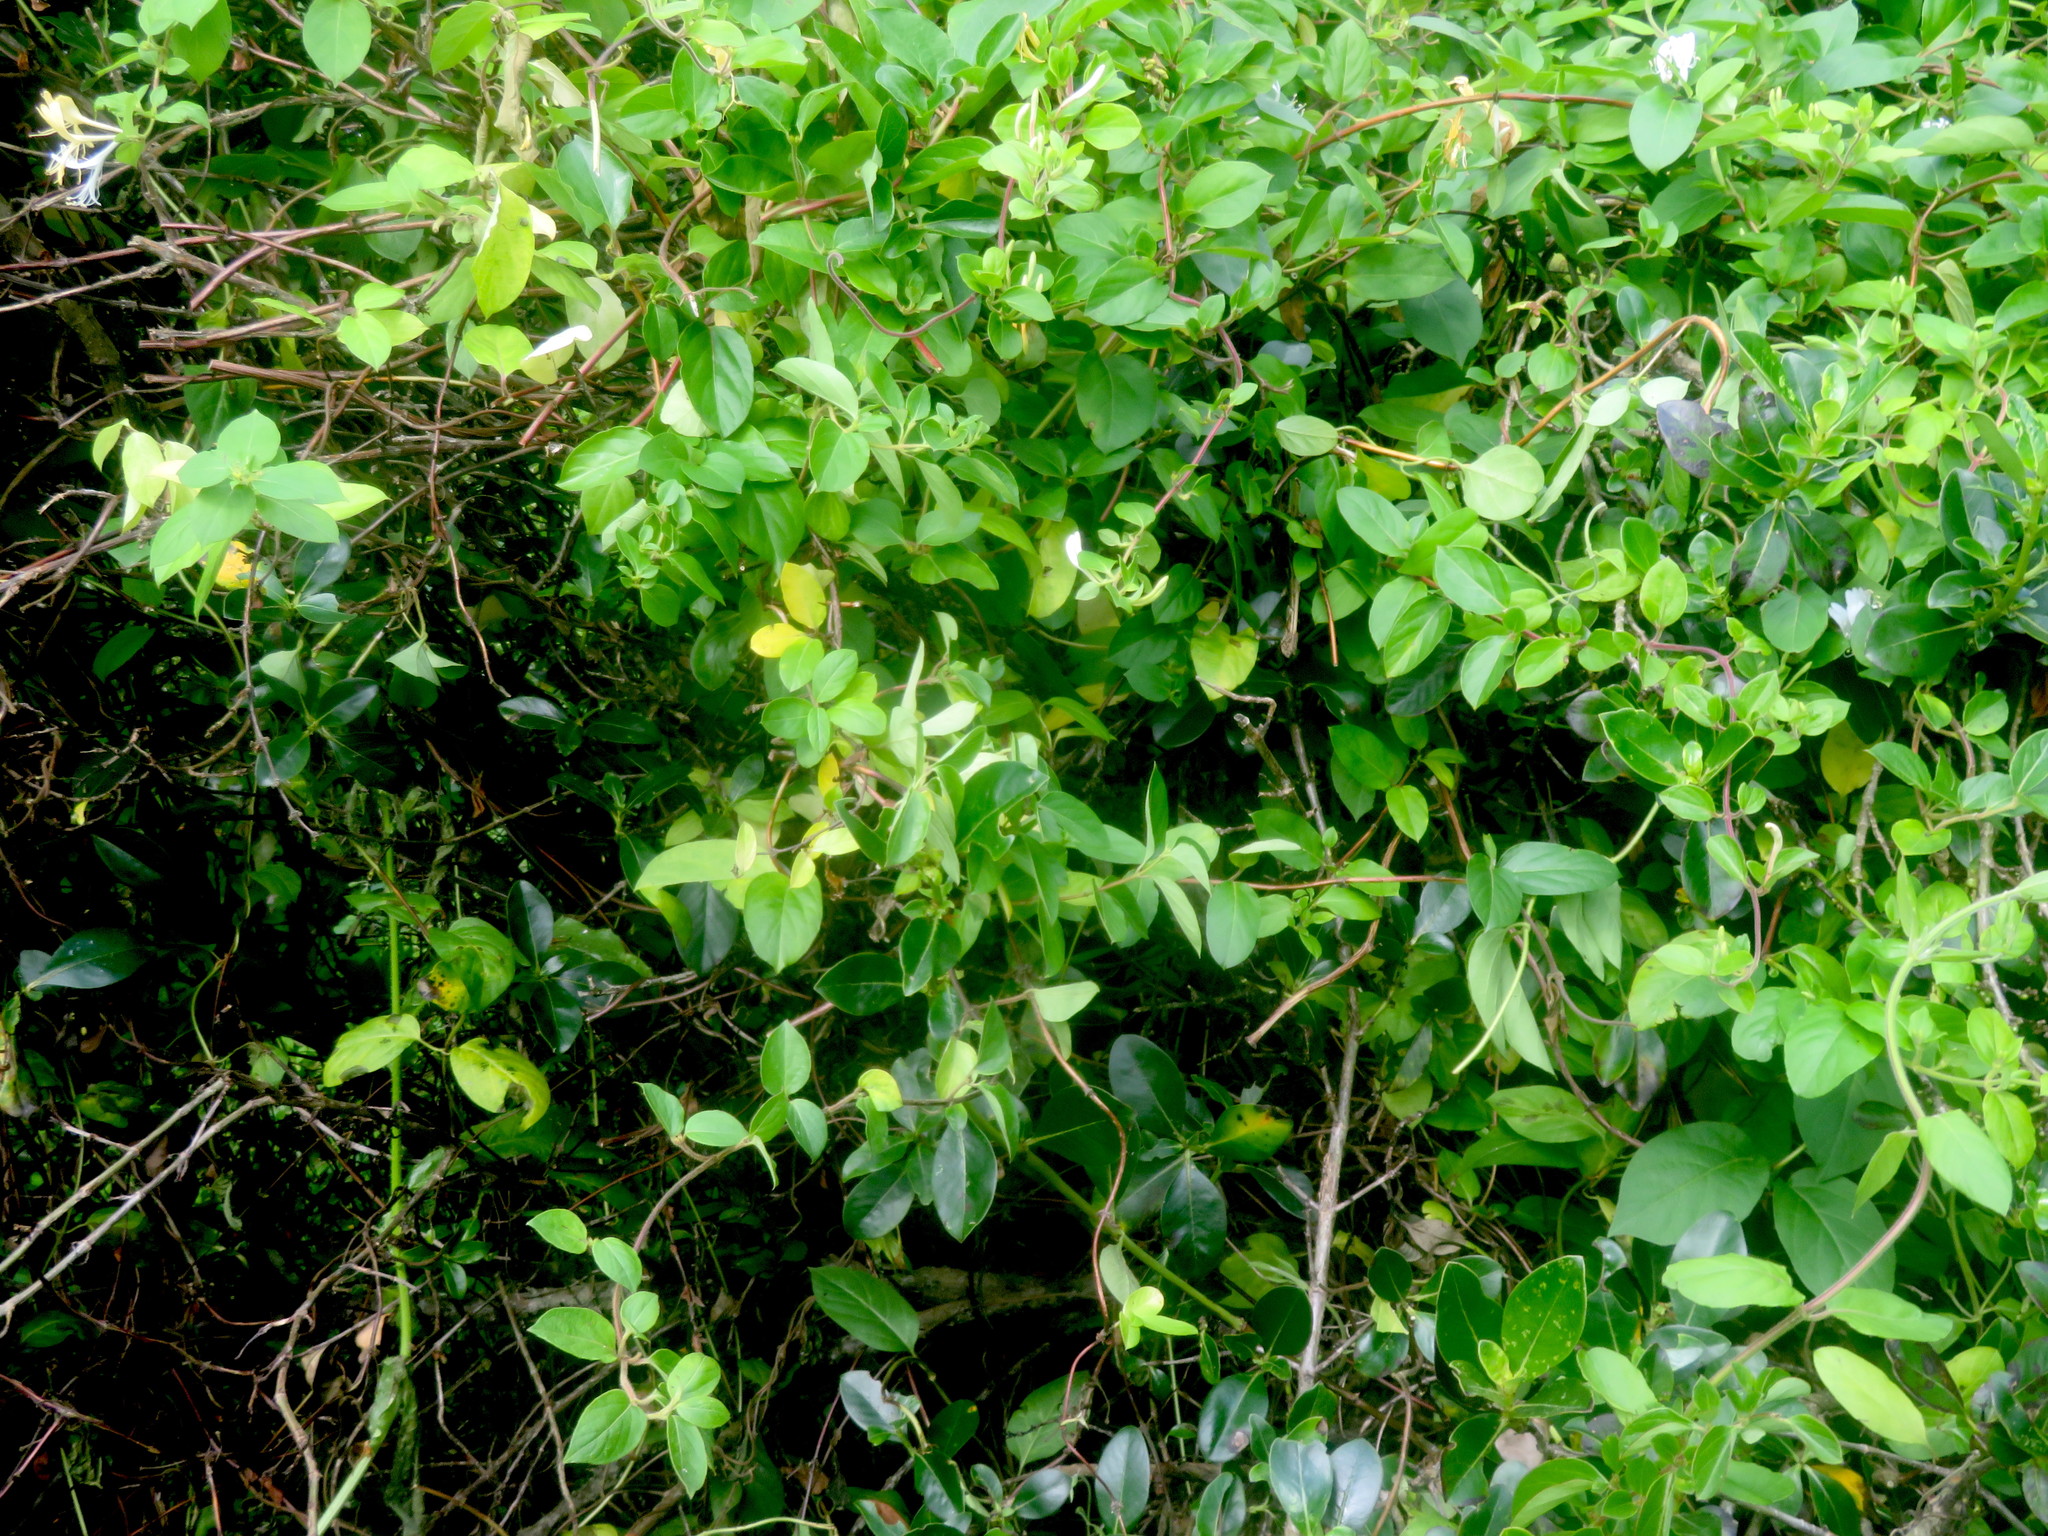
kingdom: Plantae
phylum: Tracheophyta
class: Magnoliopsida
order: Dipsacales
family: Caprifoliaceae
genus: Lonicera
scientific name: Lonicera japonica
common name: Japanese honeysuckle
